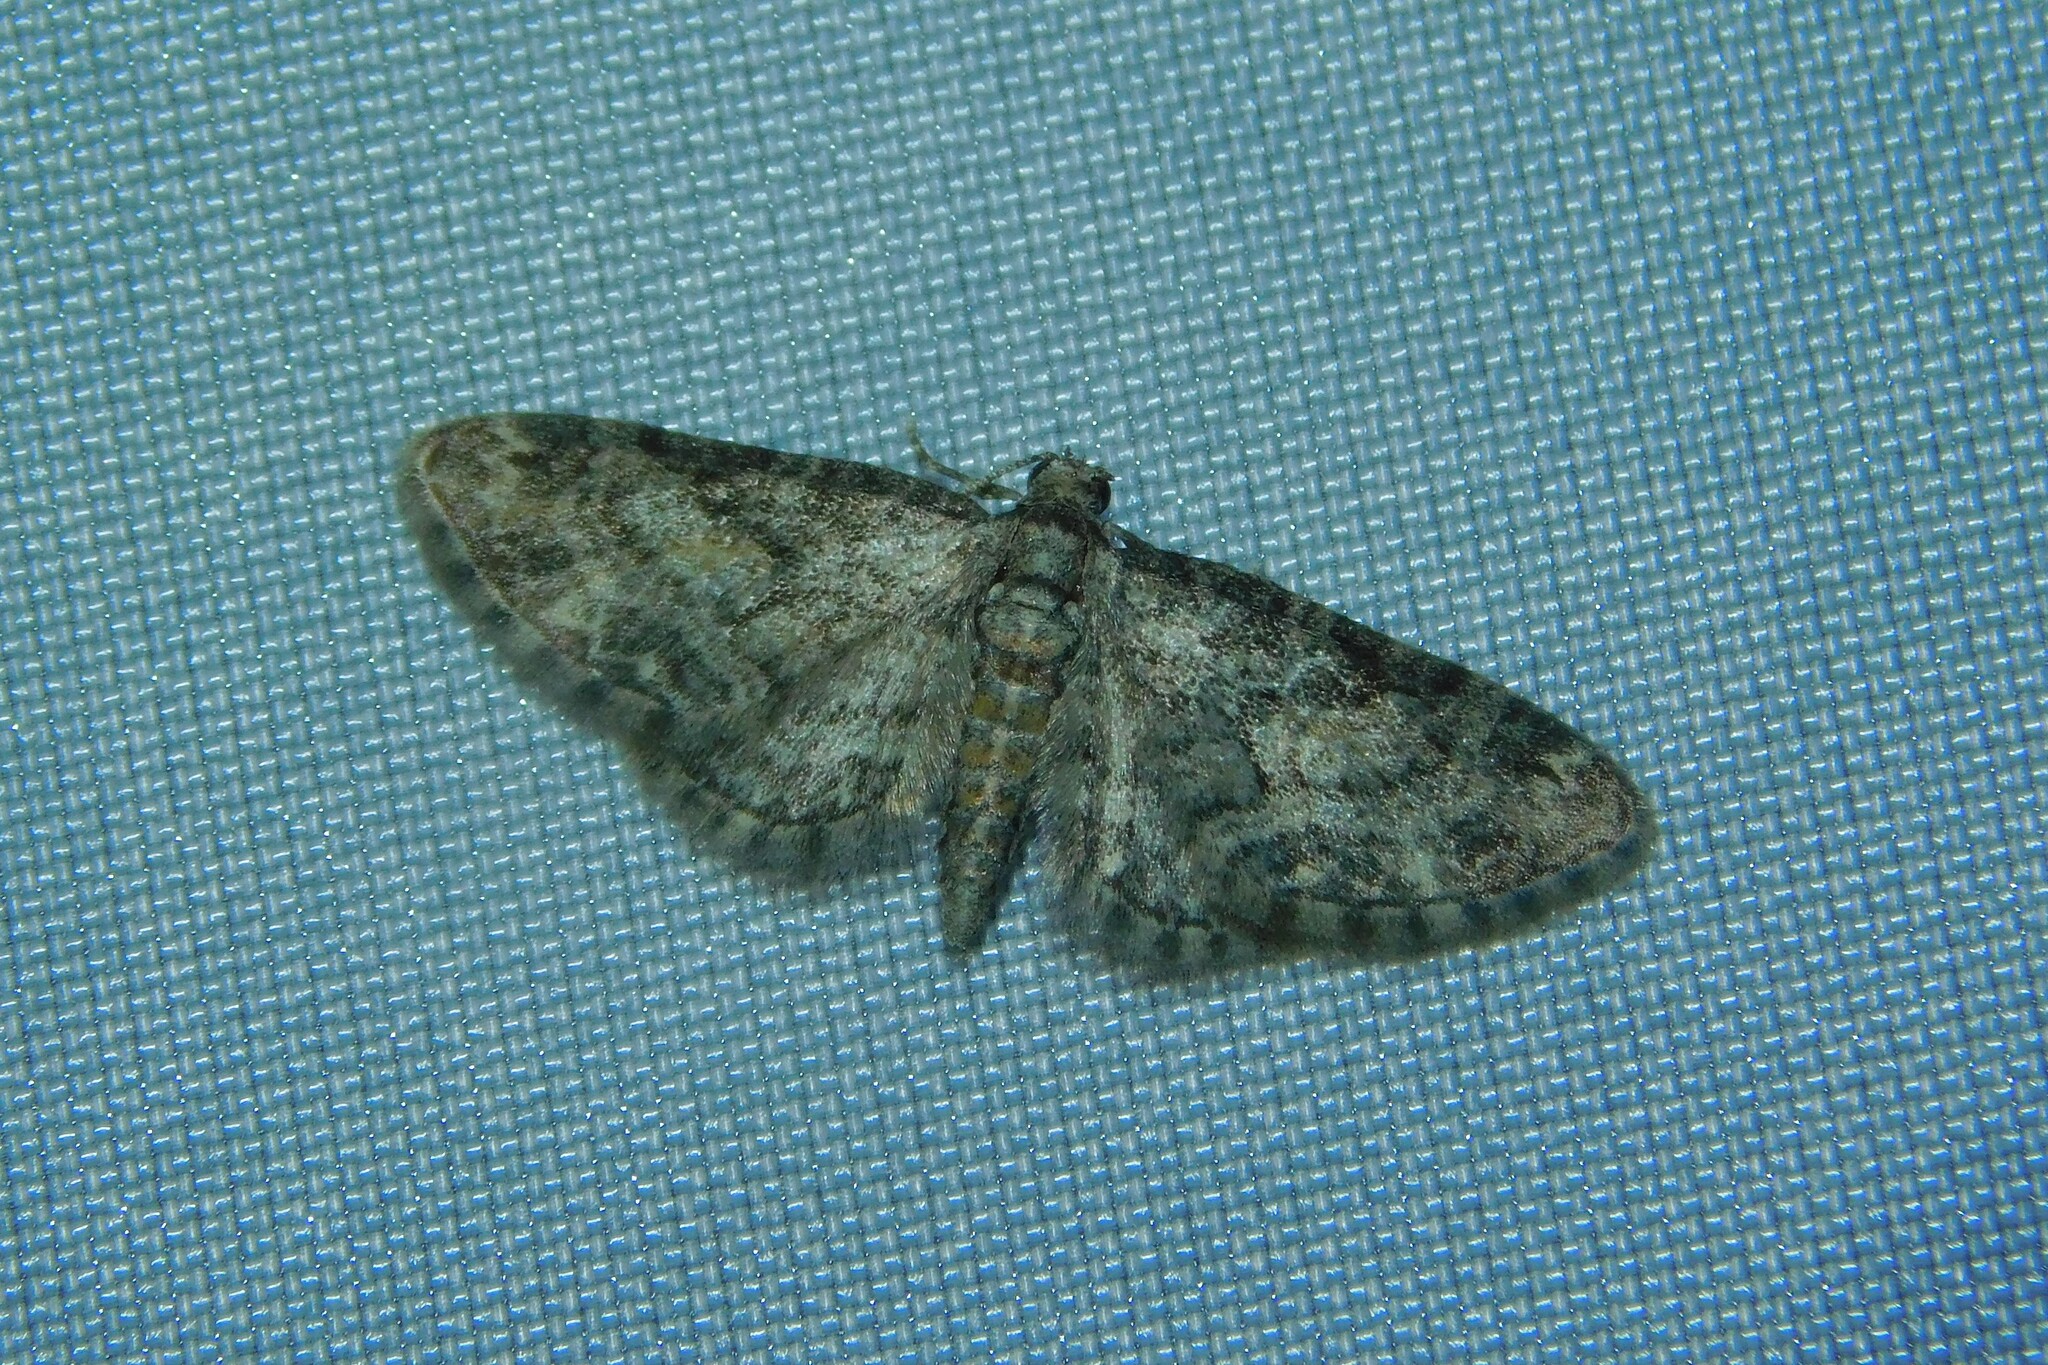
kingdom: Animalia
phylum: Arthropoda
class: Insecta
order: Lepidoptera
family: Geometridae
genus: Eupithecia
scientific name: Eupithecia inturbata
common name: Maple pug
